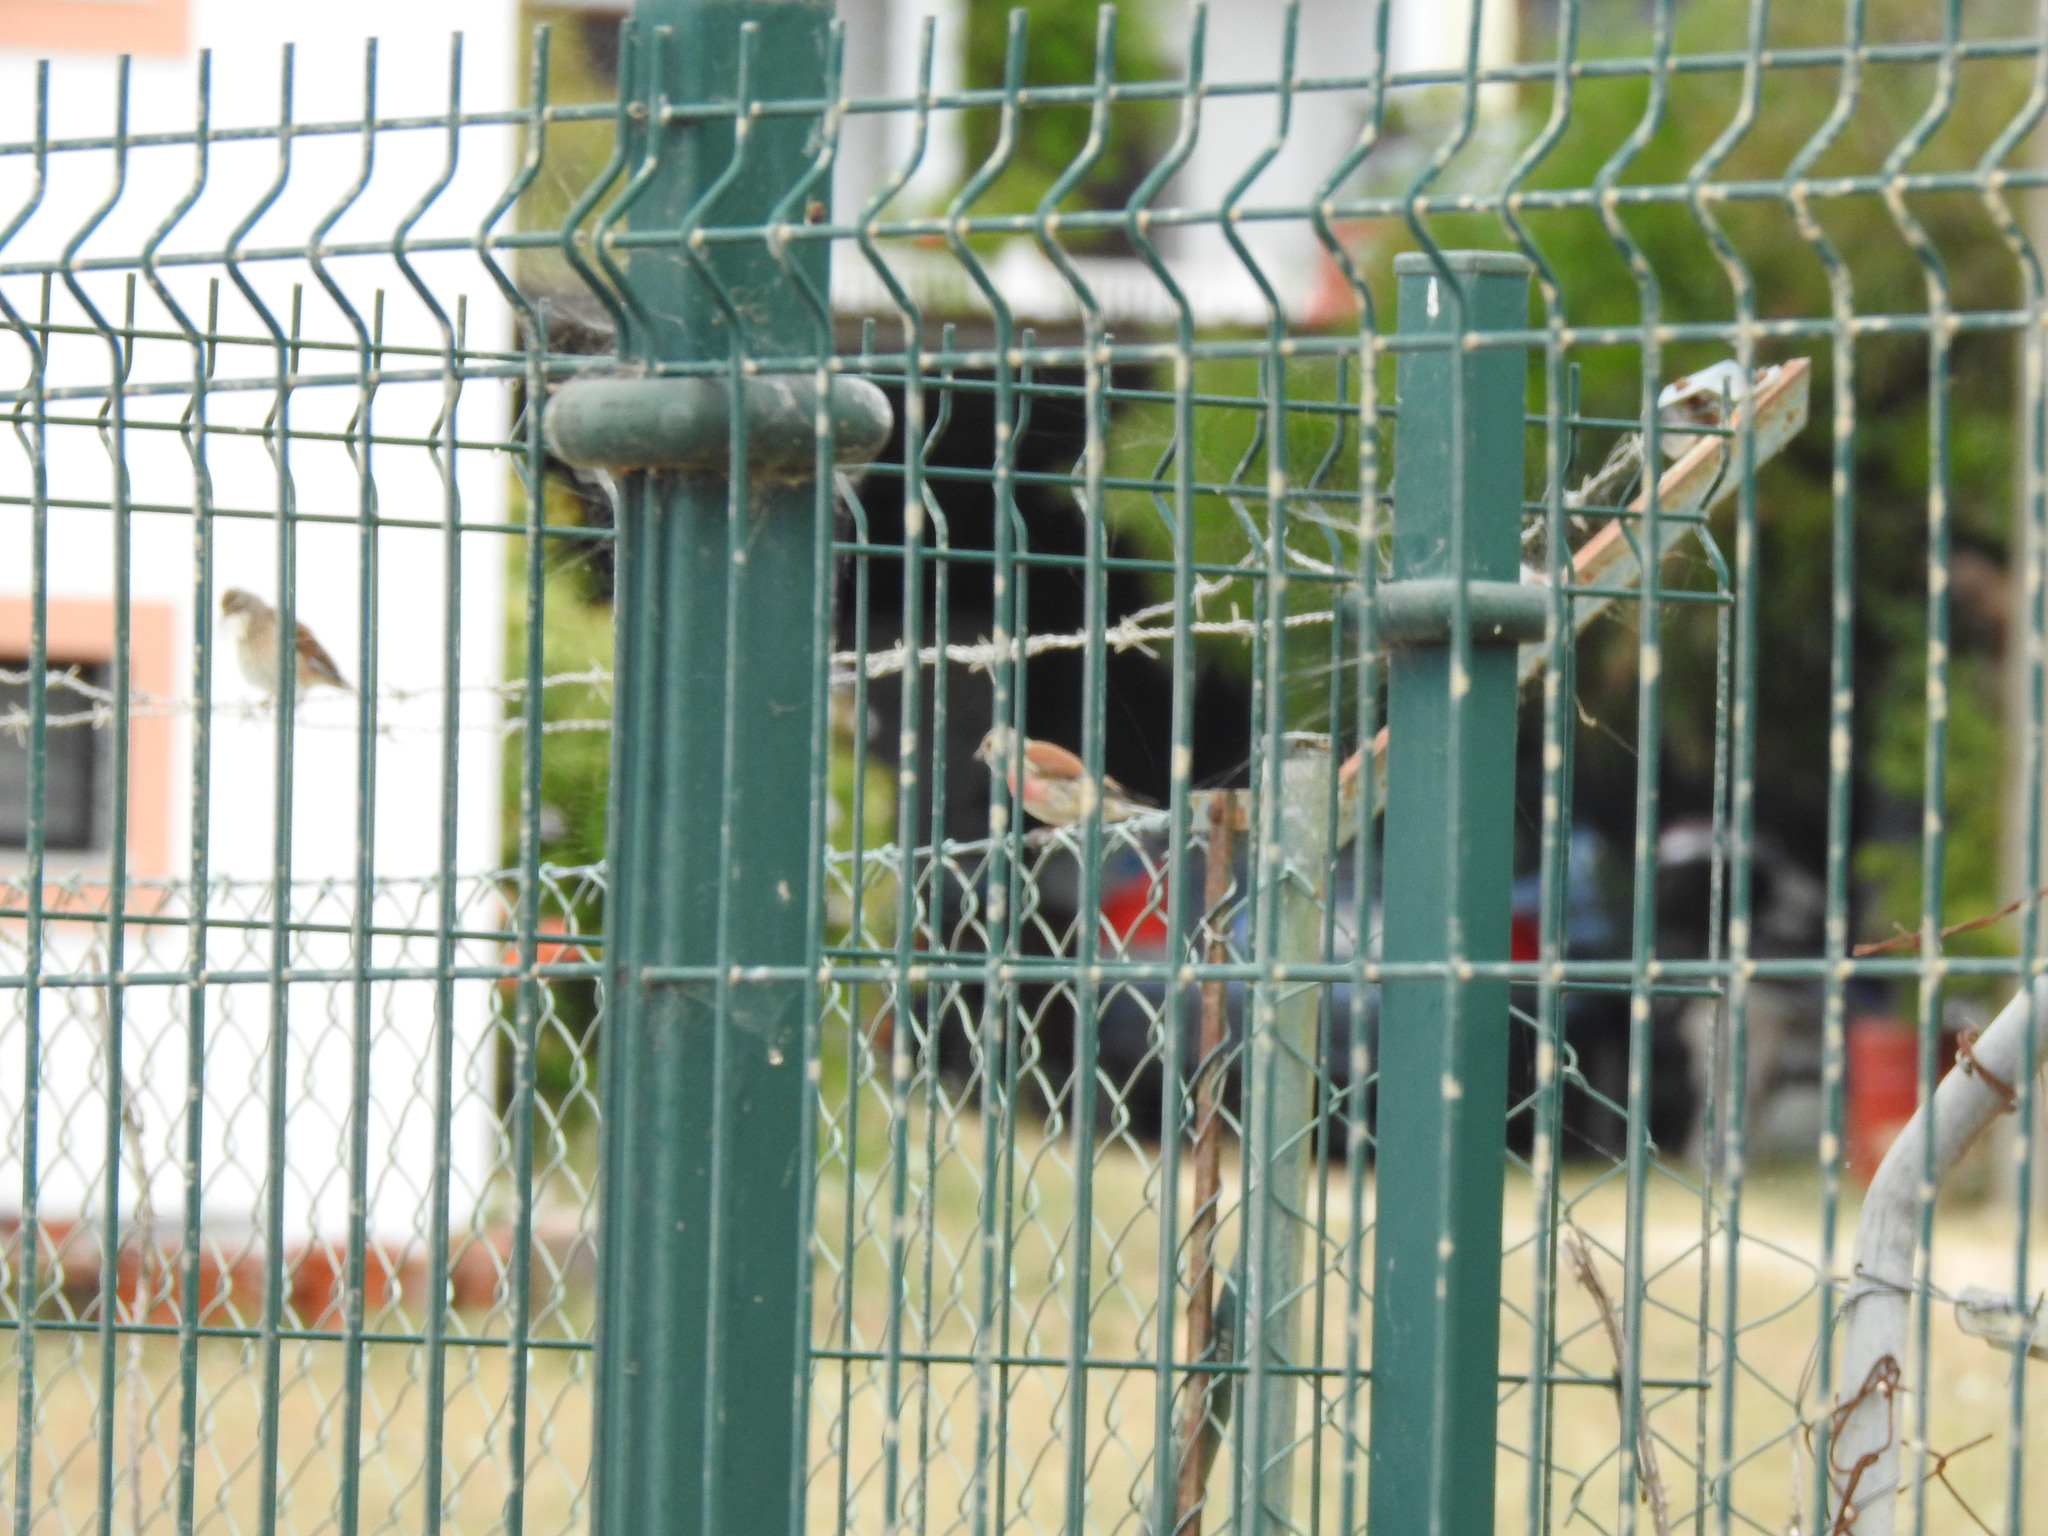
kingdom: Animalia
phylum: Chordata
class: Aves
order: Passeriformes
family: Fringillidae
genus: Linaria
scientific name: Linaria cannabina
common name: Common linnet
